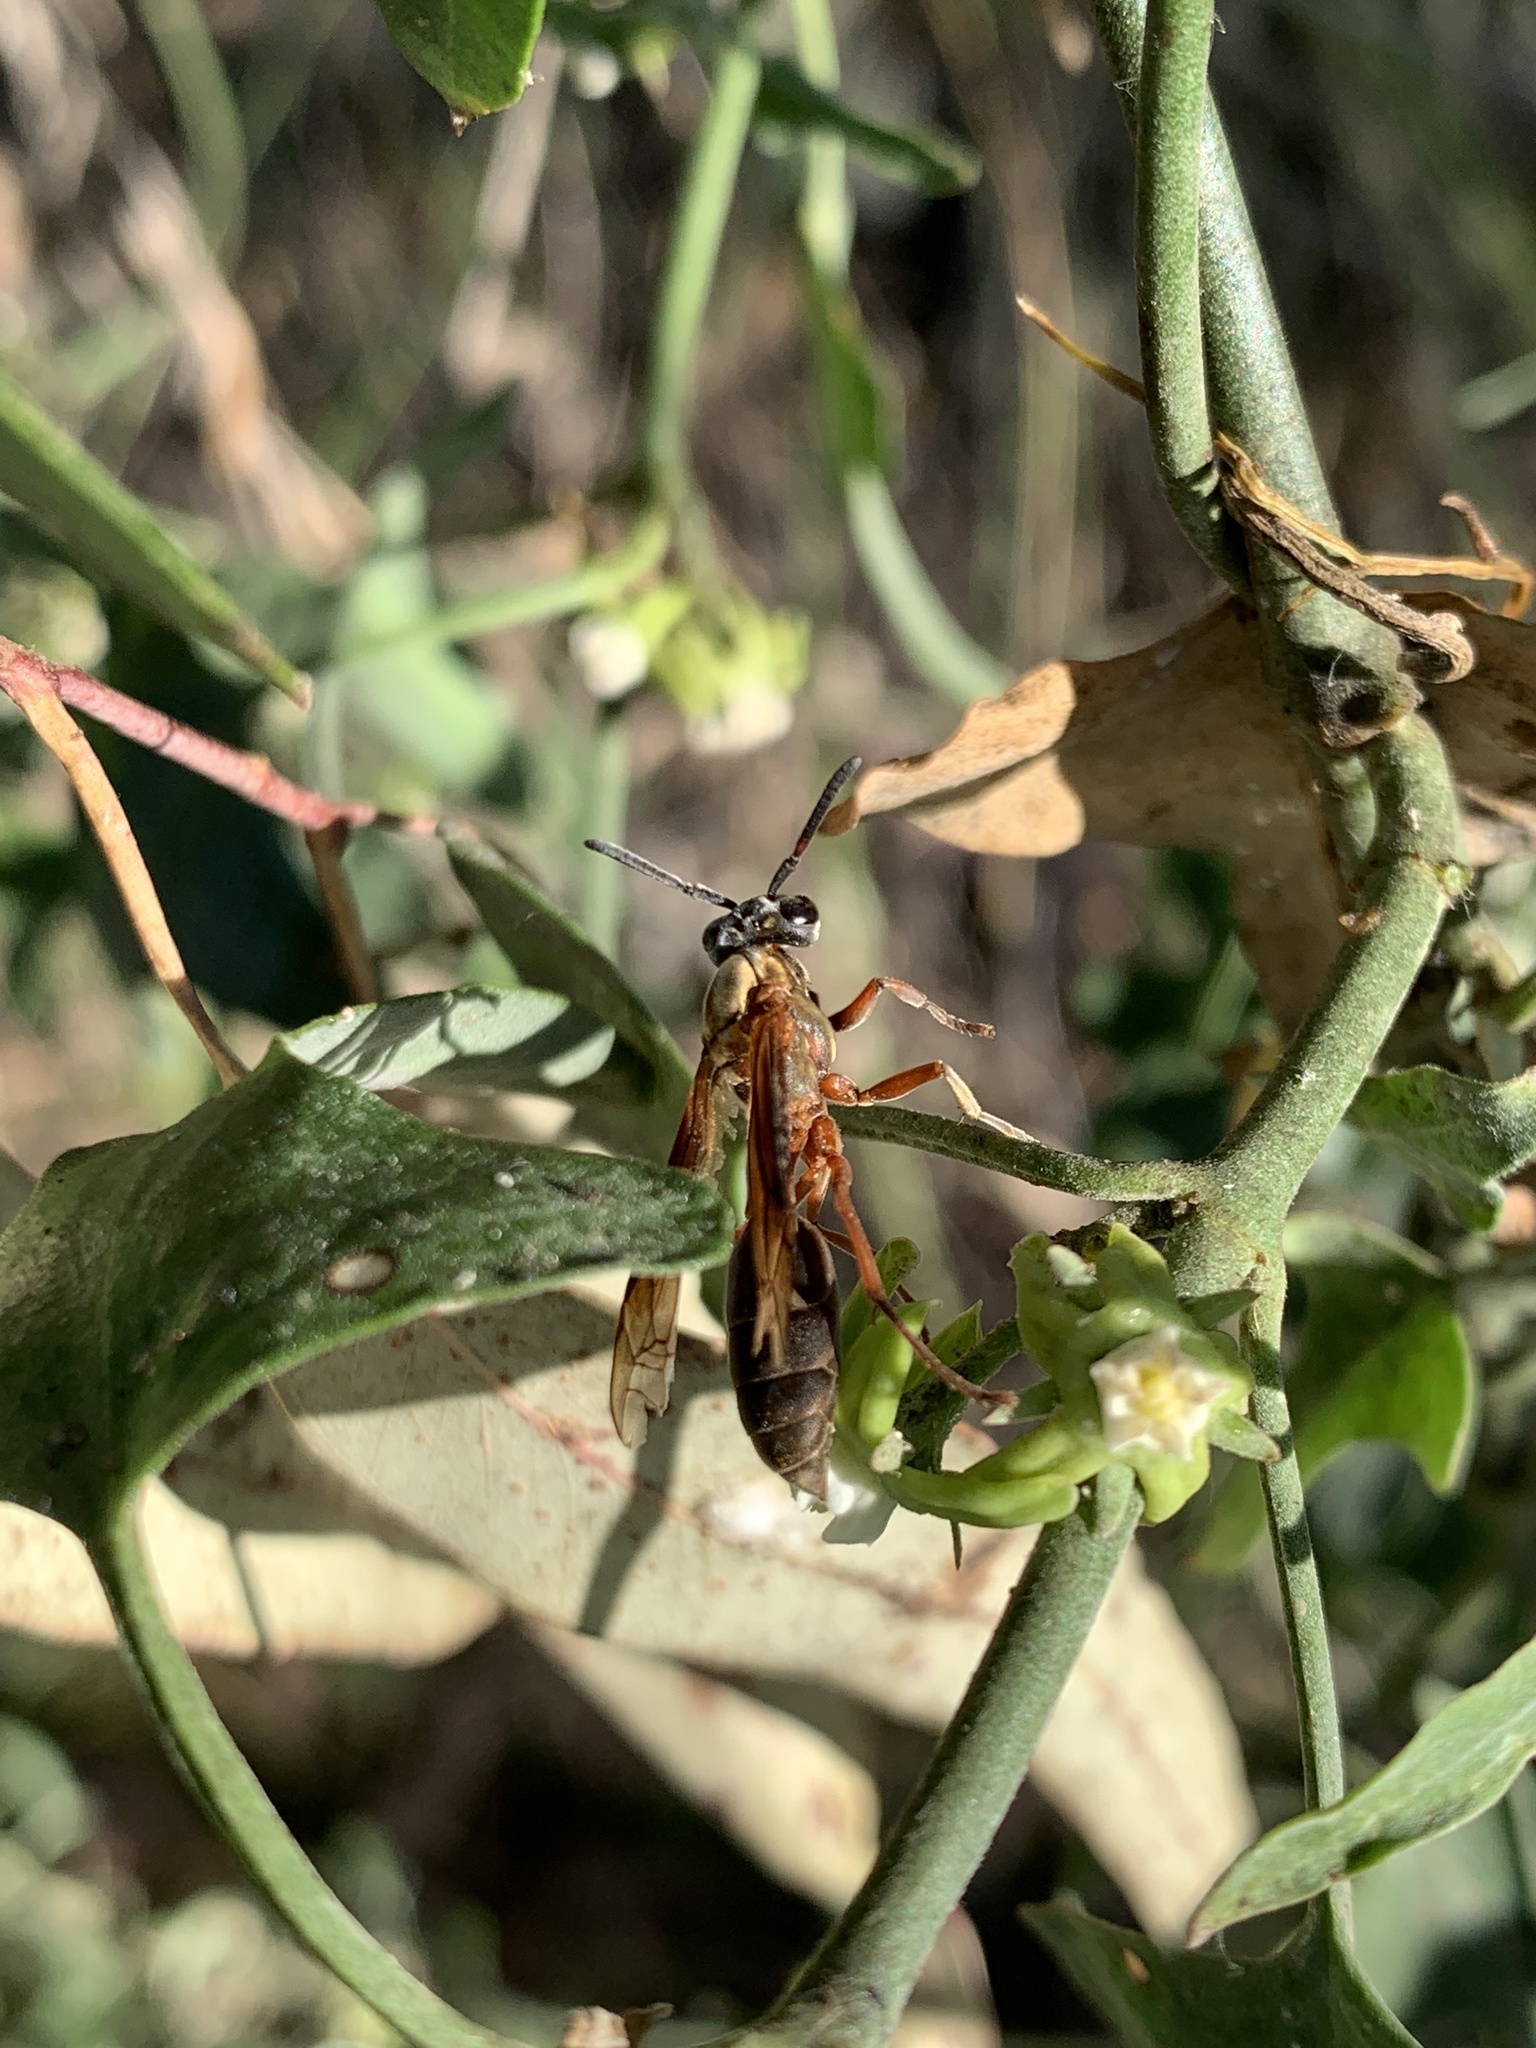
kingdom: Animalia
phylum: Arthropoda
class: Insecta
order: Hymenoptera
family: Eumenidae
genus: Polybia
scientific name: Polybia sericea
